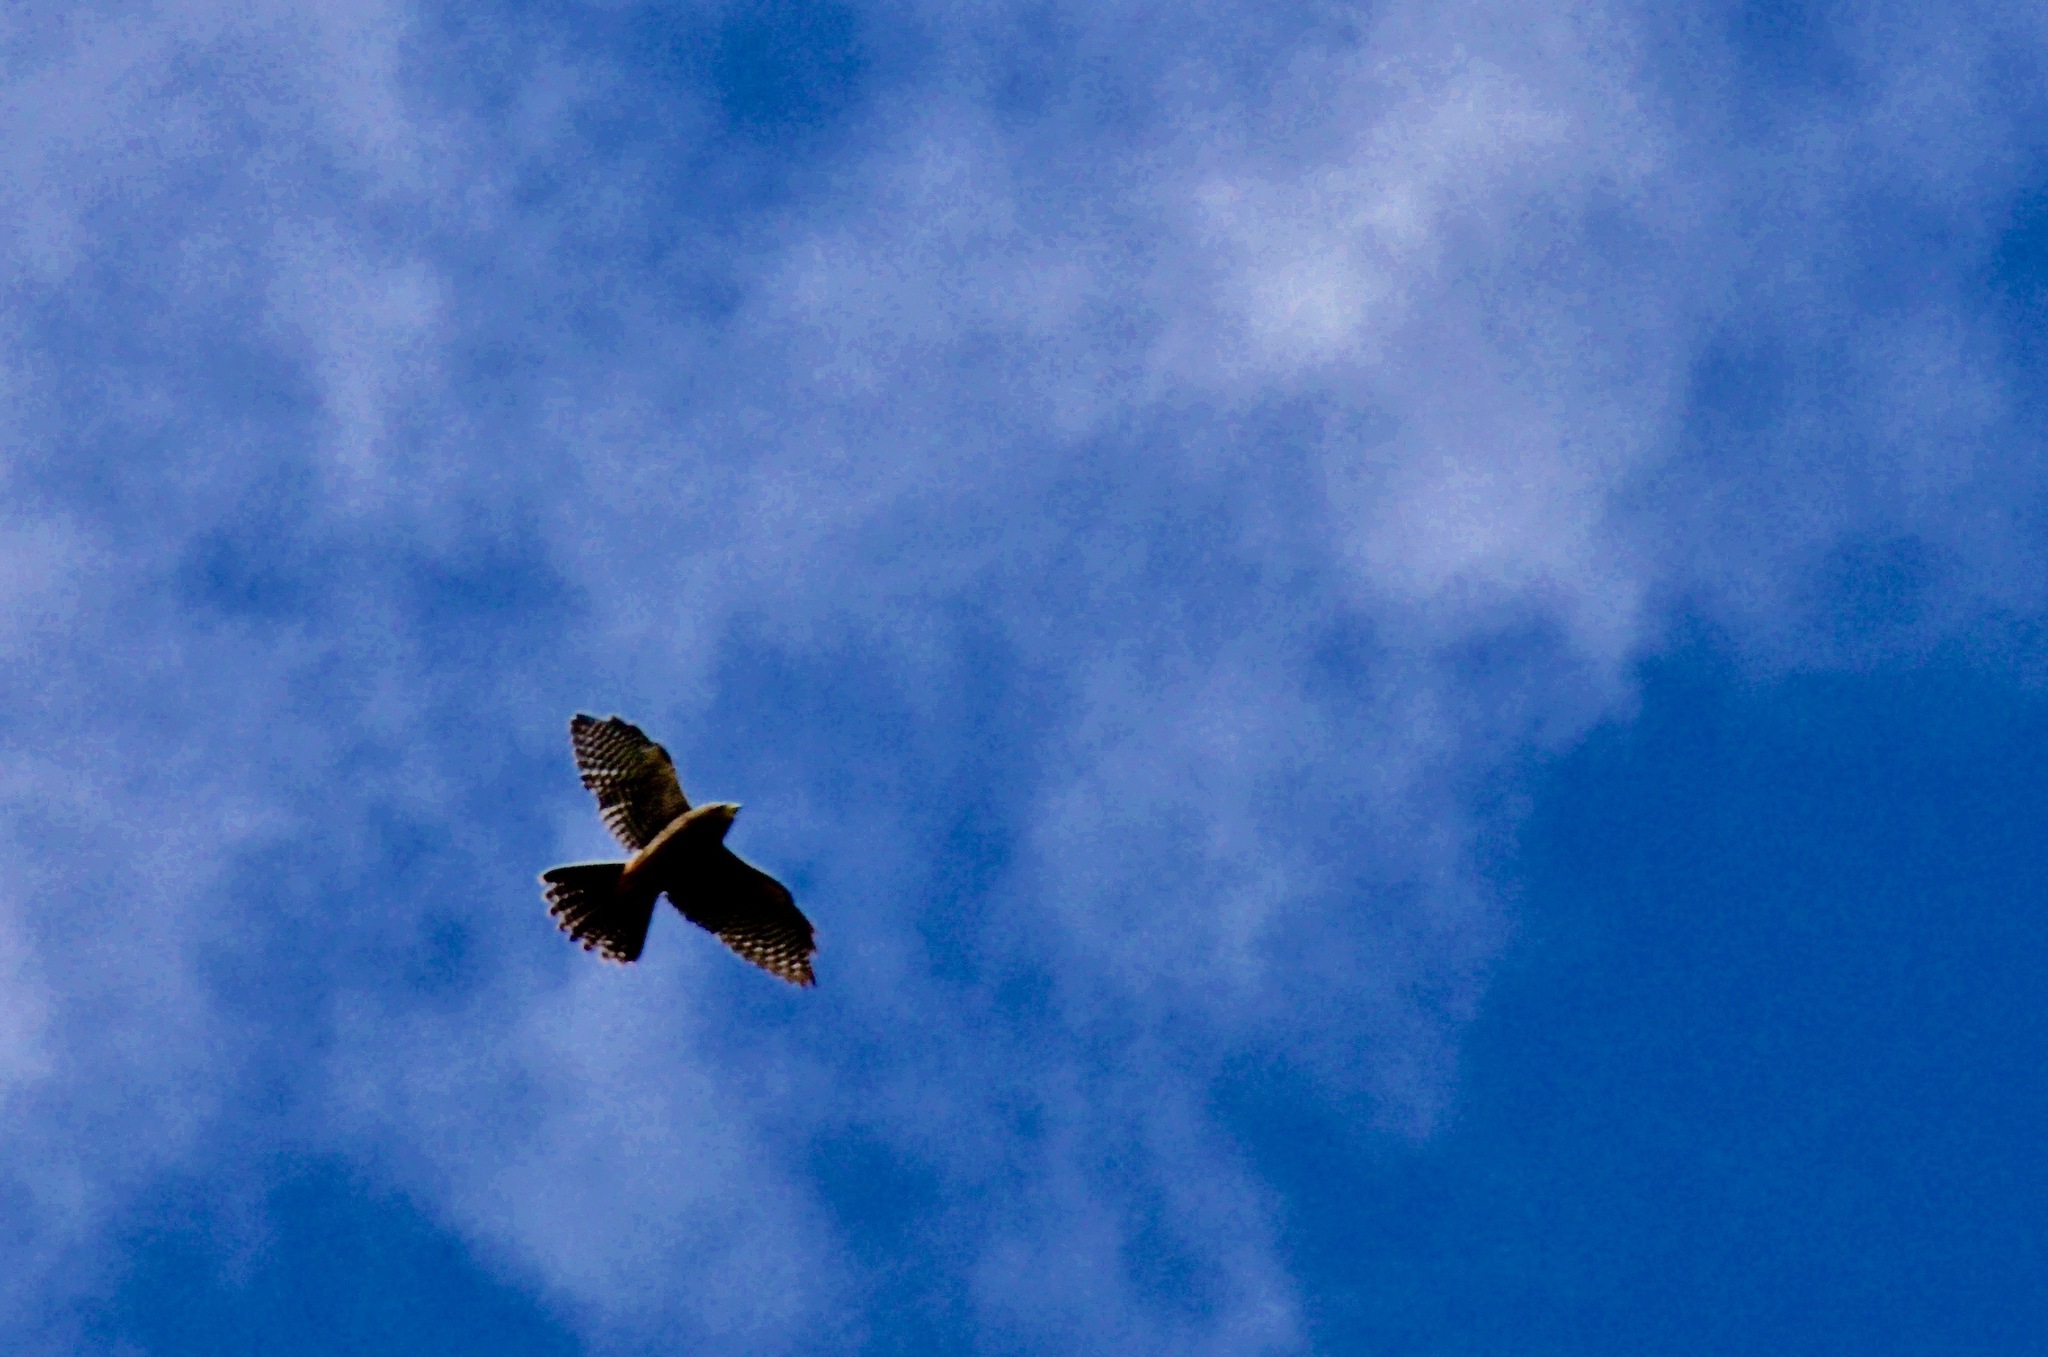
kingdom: Animalia
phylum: Chordata
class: Aves
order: Falconiformes
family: Falconidae
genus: Falco
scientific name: Falco novaeseelandiae
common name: New zealand falcon
